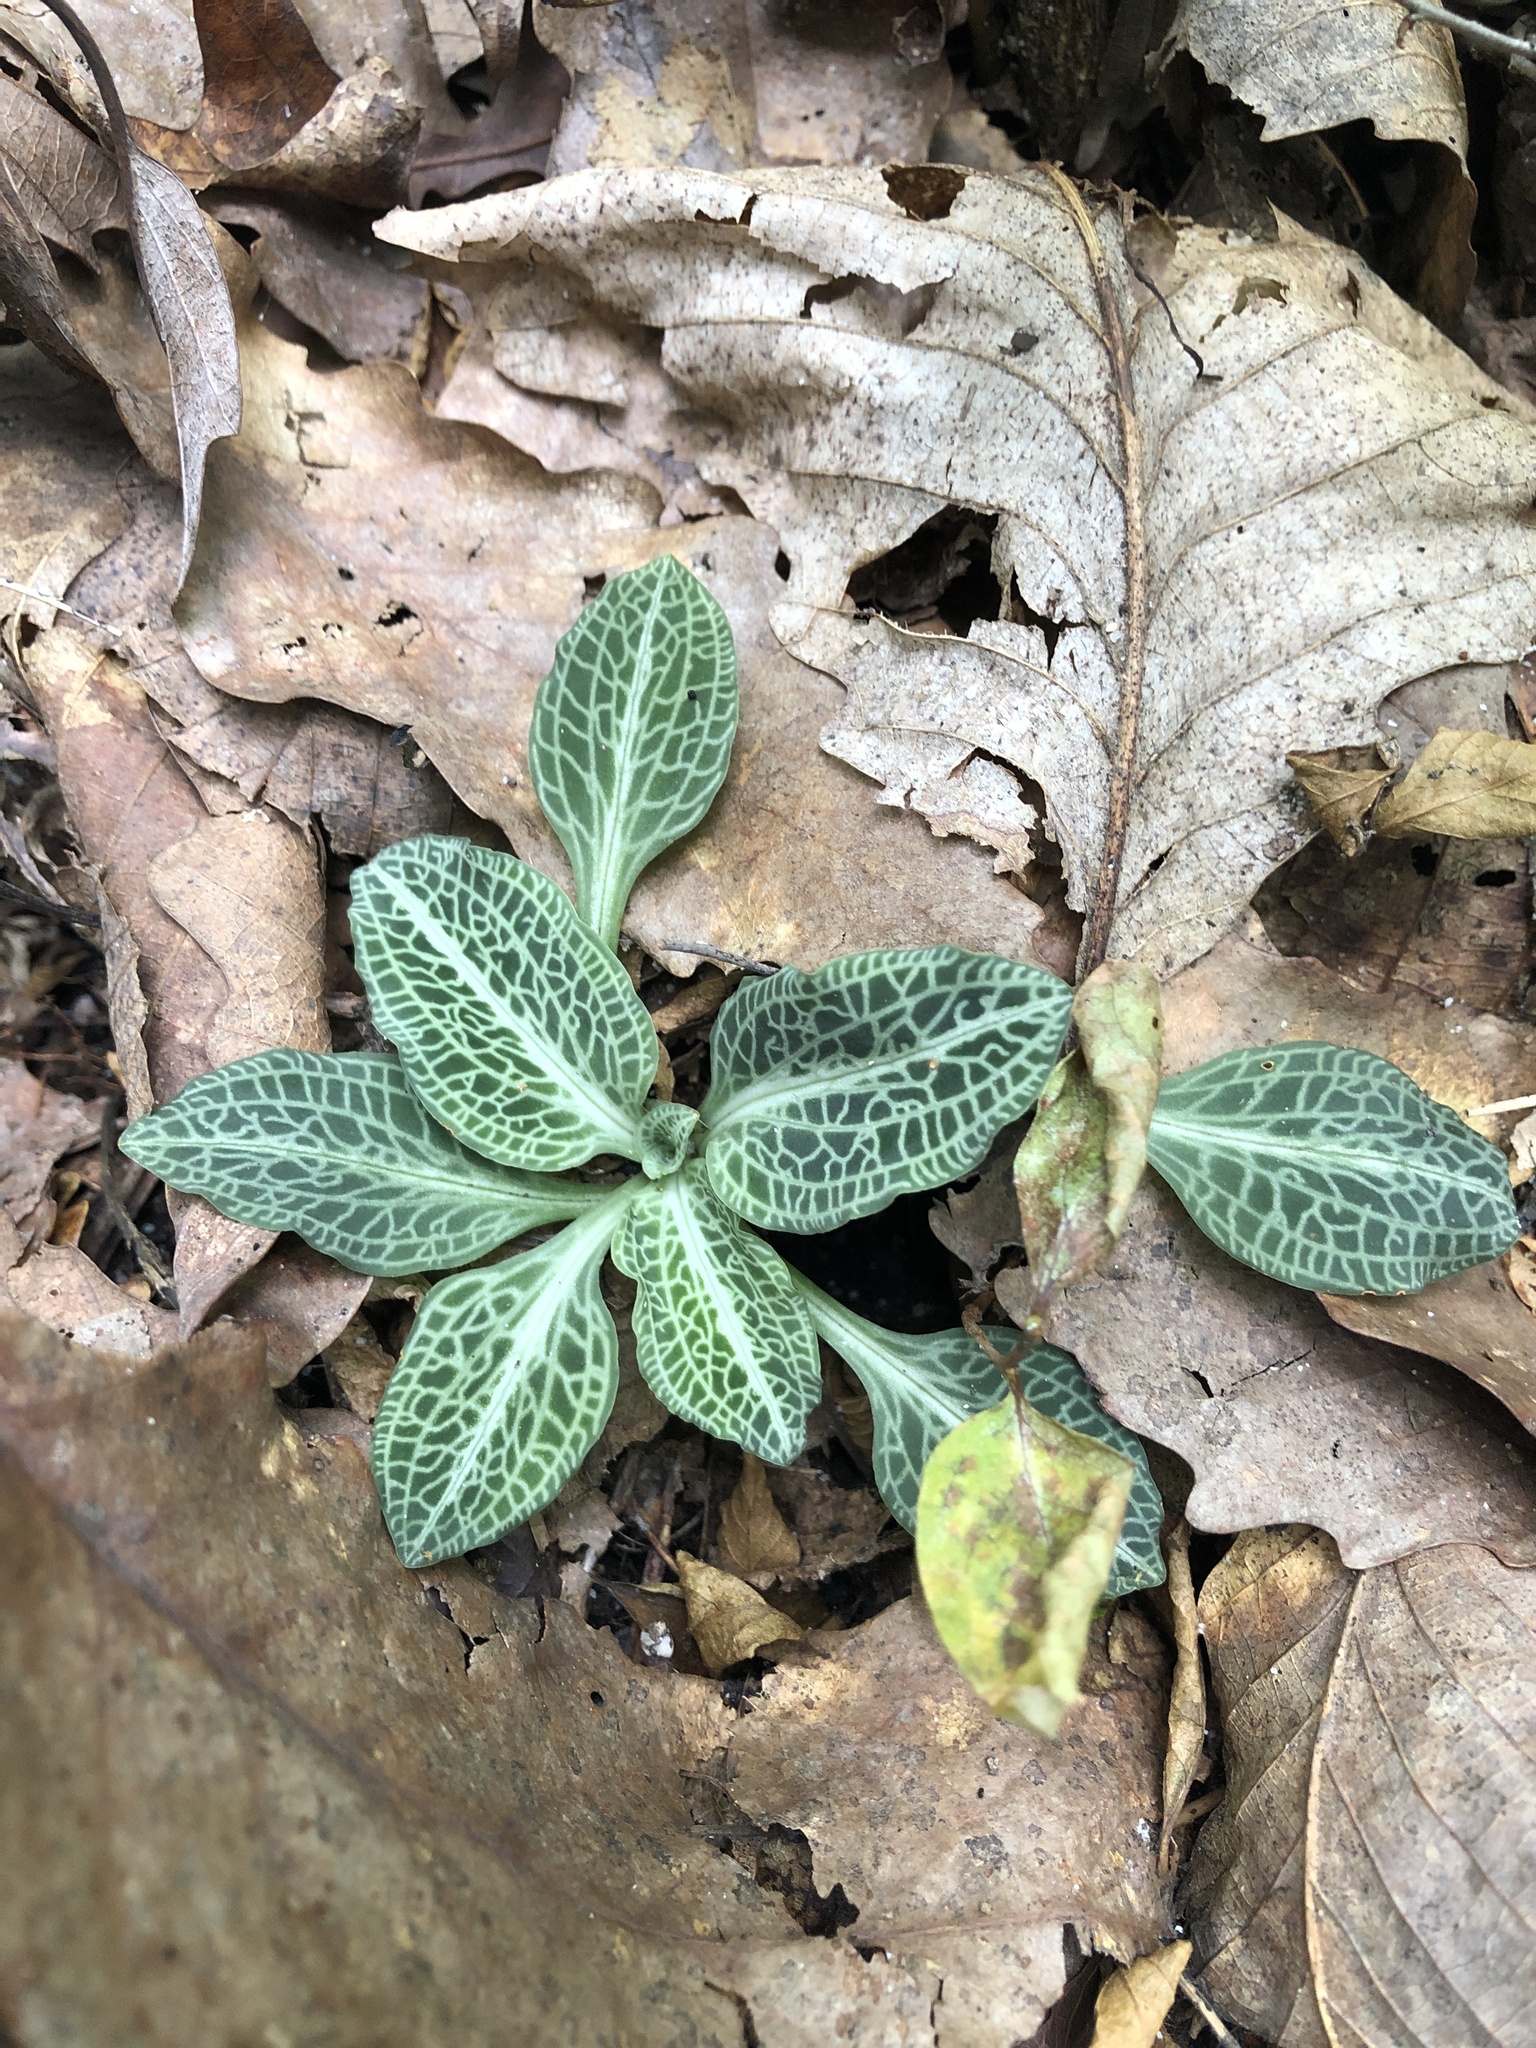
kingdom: Plantae
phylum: Tracheophyta
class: Liliopsida
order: Asparagales
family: Orchidaceae
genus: Goodyera
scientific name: Goodyera pubescens
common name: Downy rattlesnake-plantain
